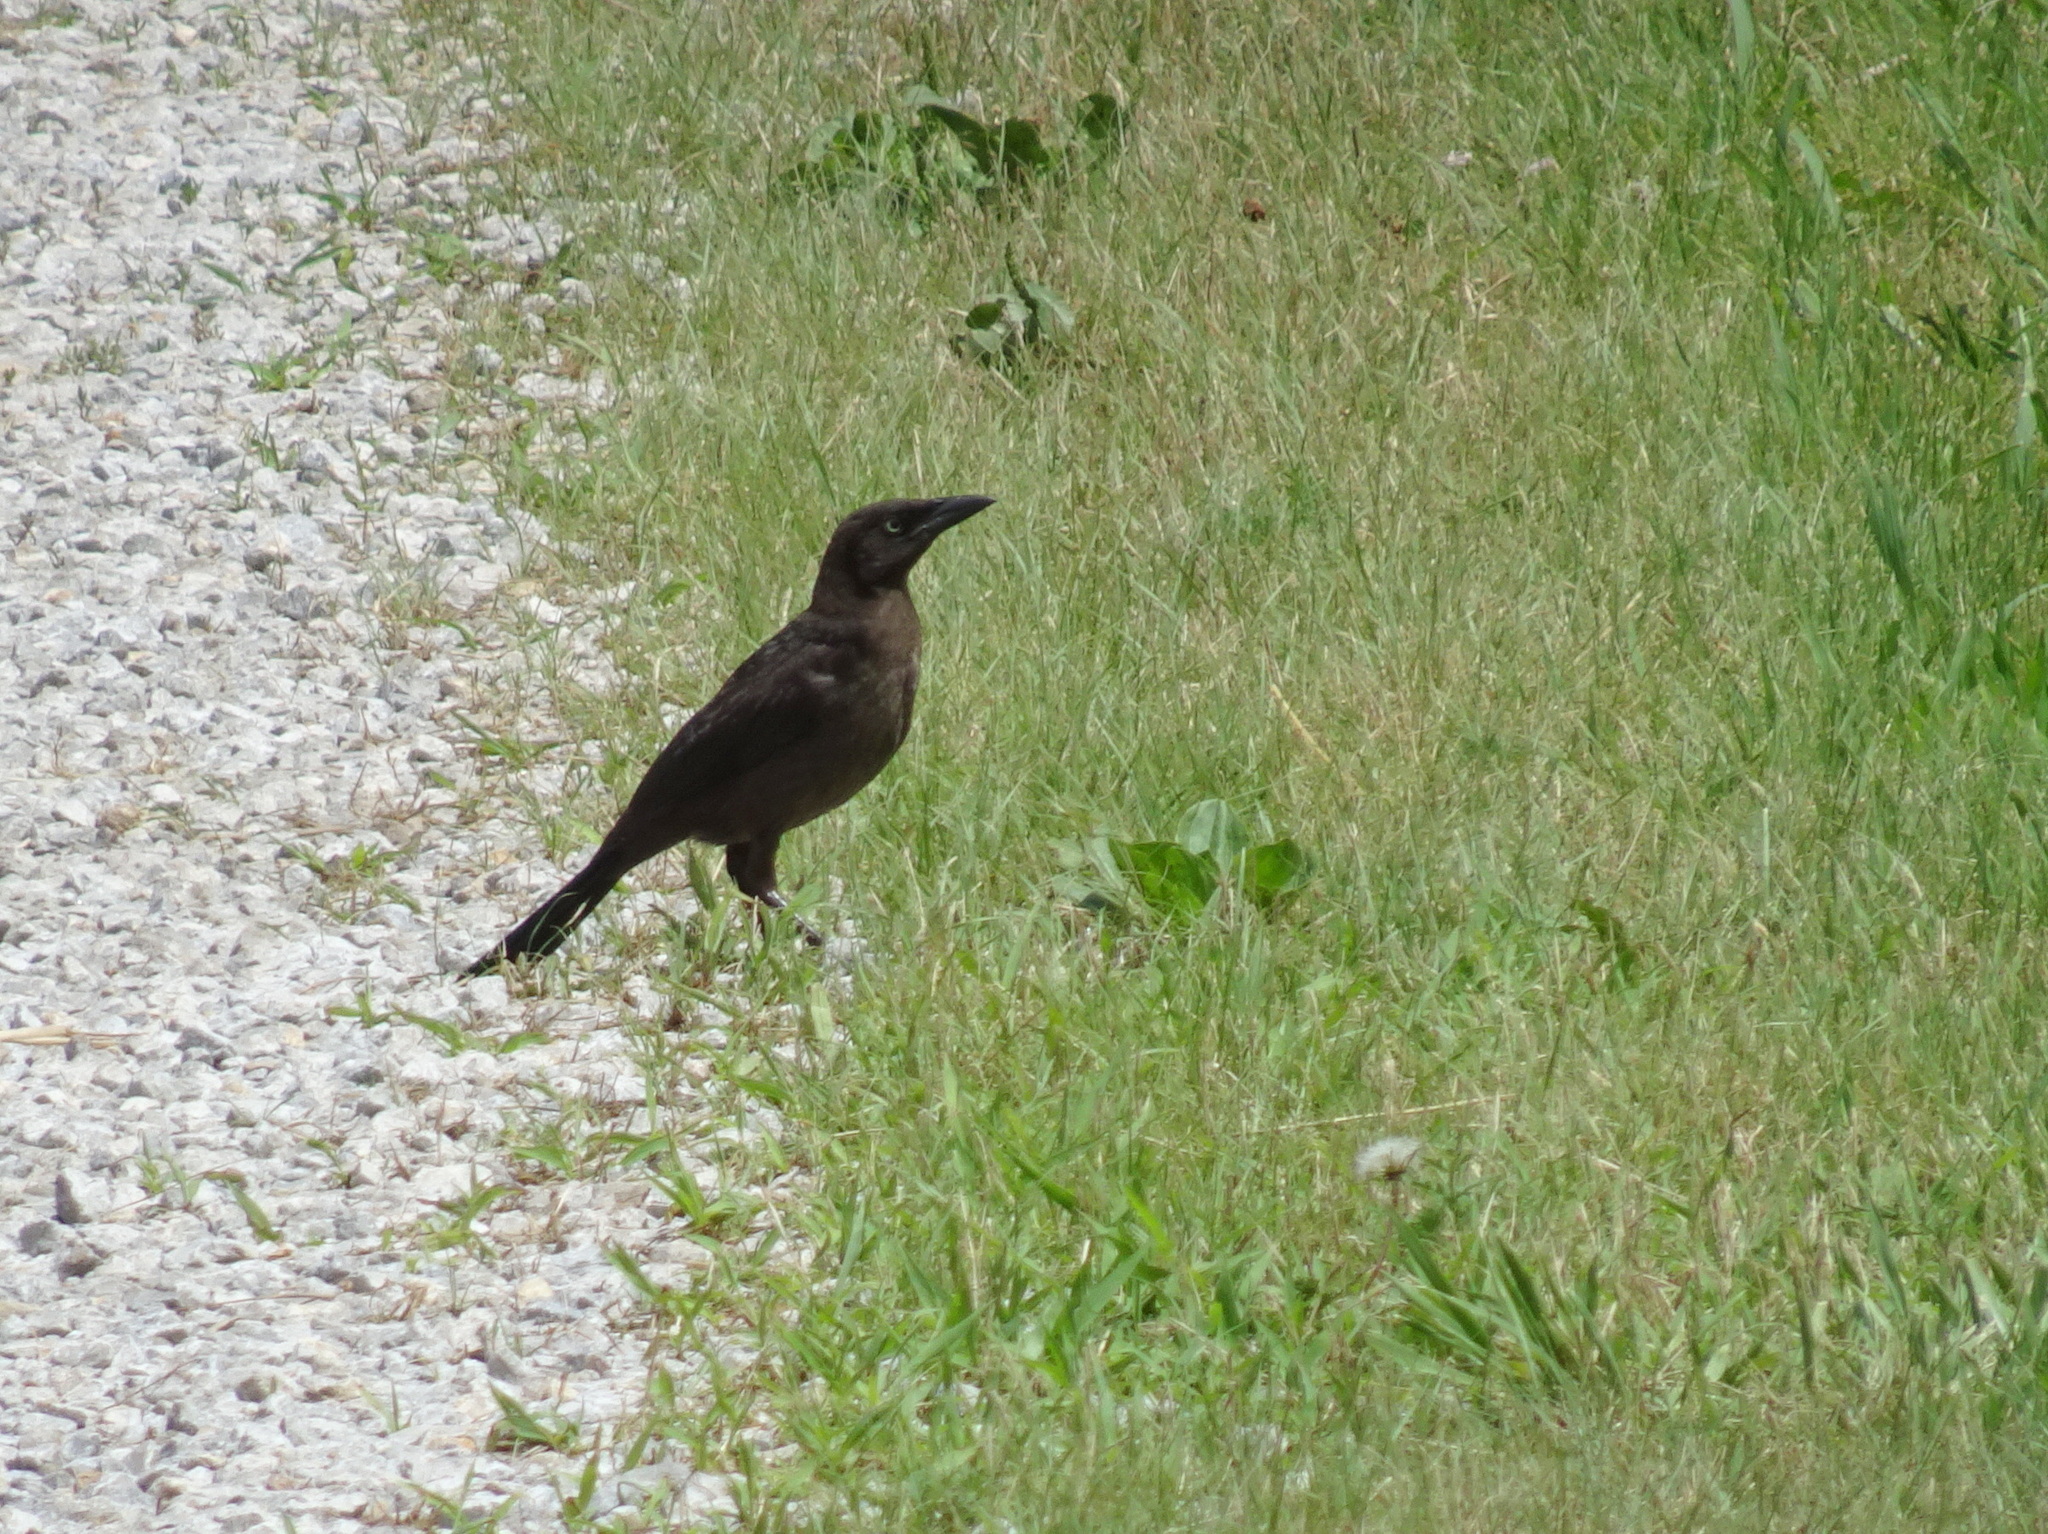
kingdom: Animalia
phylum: Chordata
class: Aves
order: Passeriformes
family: Icteridae
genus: Quiscalus
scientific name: Quiscalus quiscula
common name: Common grackle
